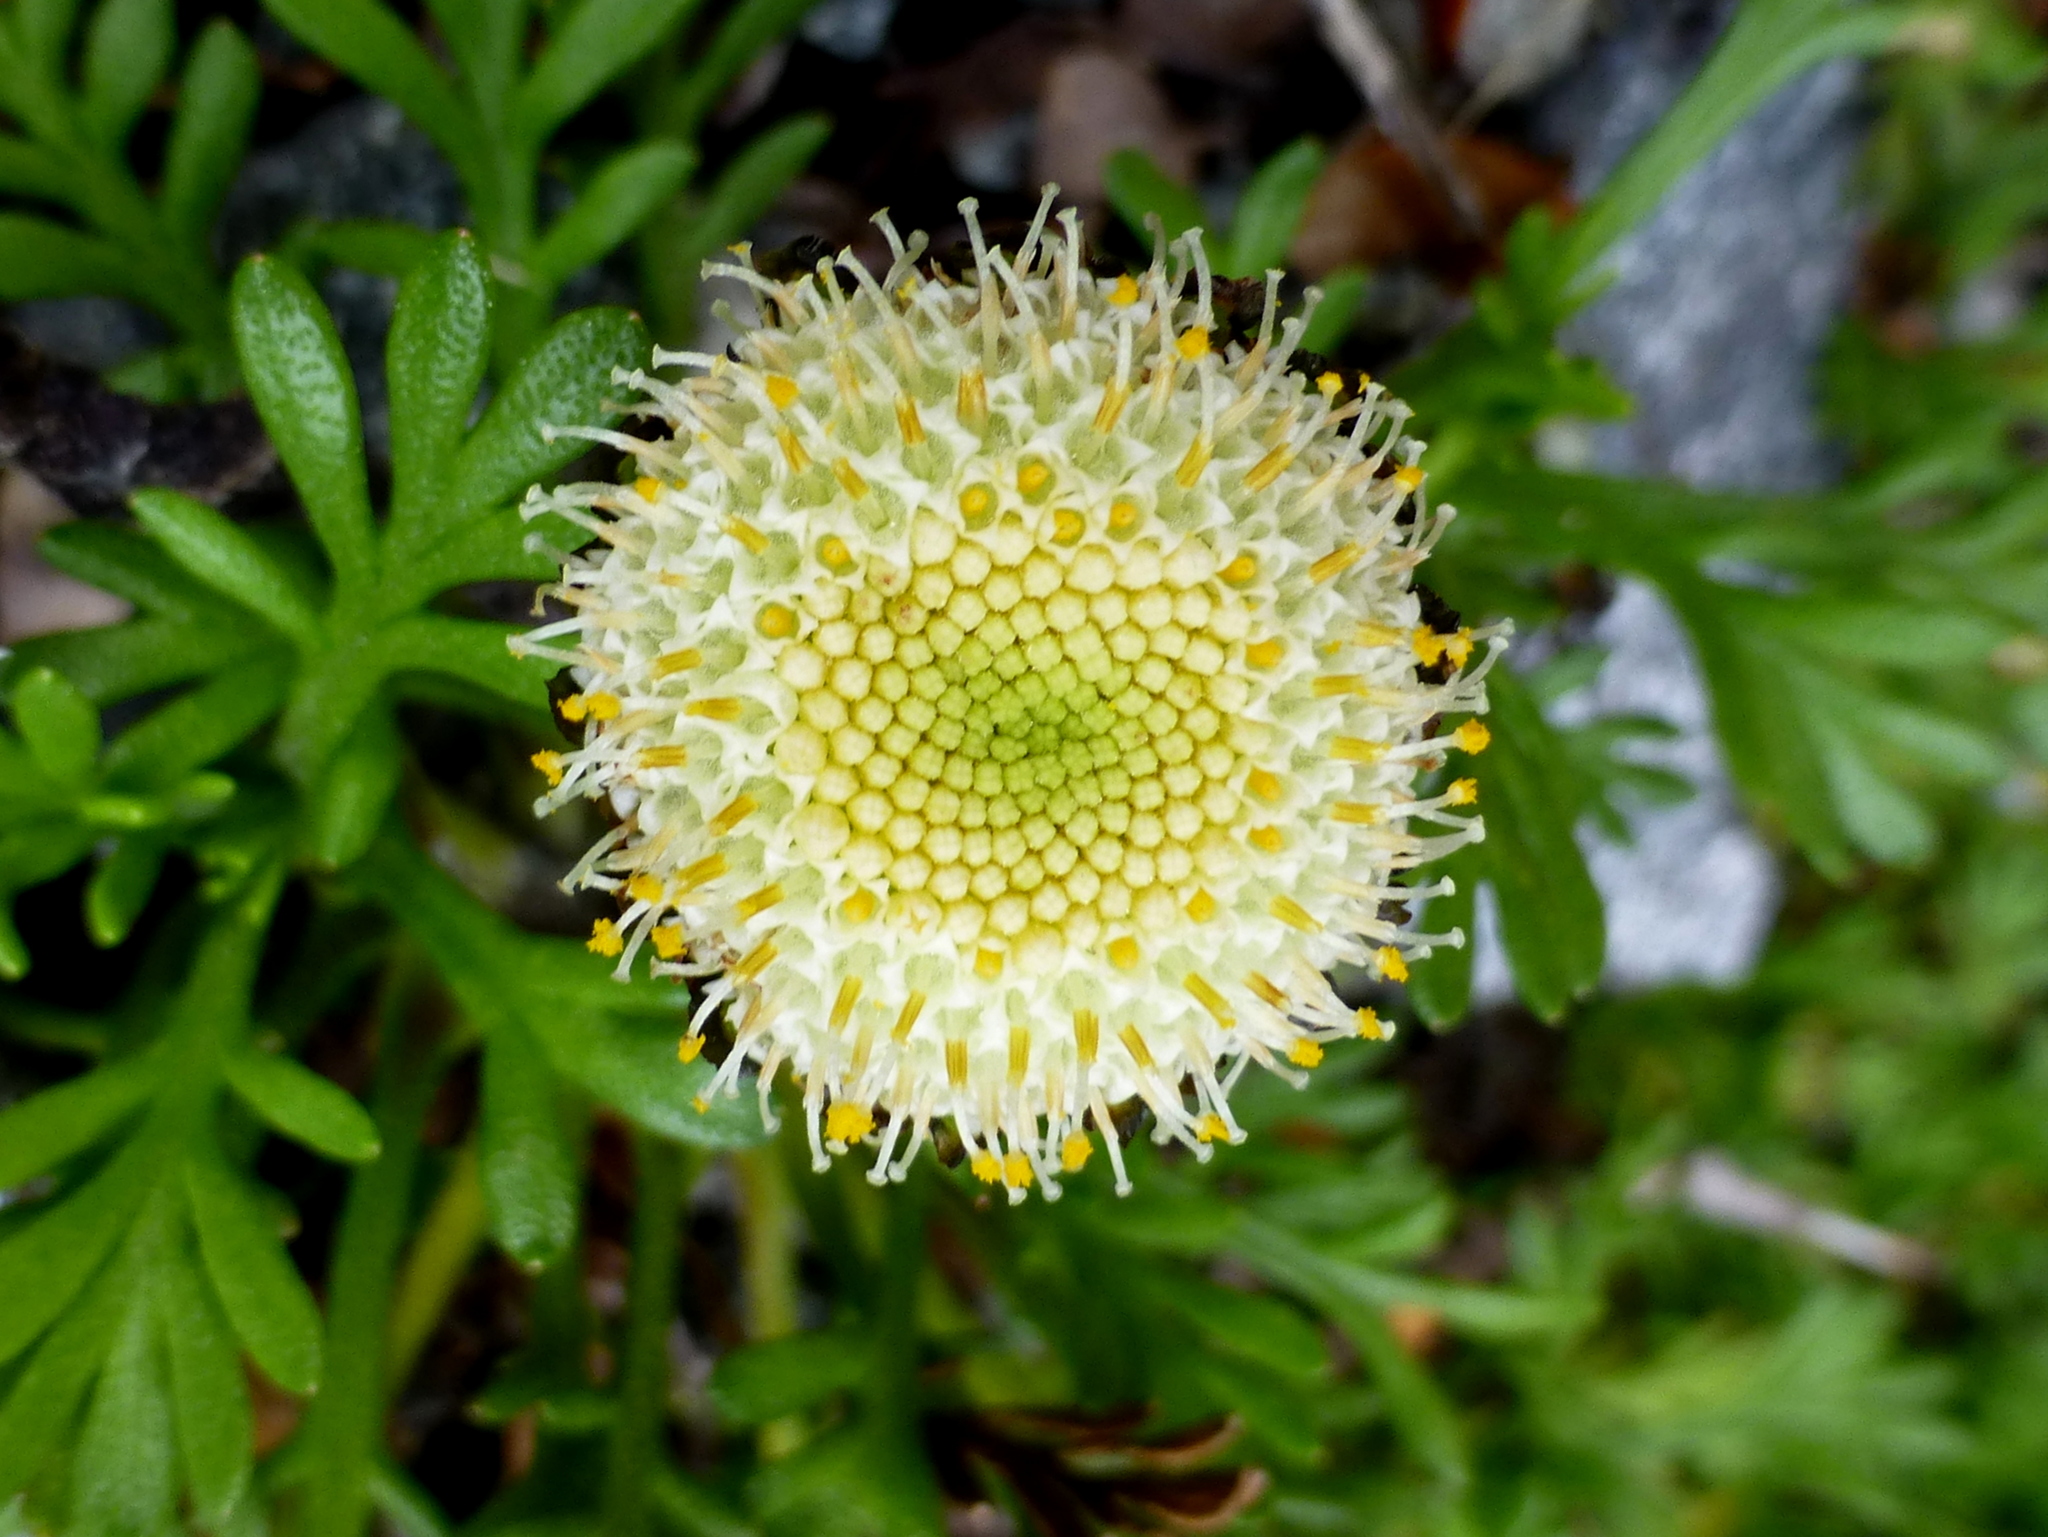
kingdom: Plantae
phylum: Tracheophyta
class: Magnoliopsida
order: Asterales
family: Asteraceae
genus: Leptinella
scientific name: Leptinella pyrethrifolia
